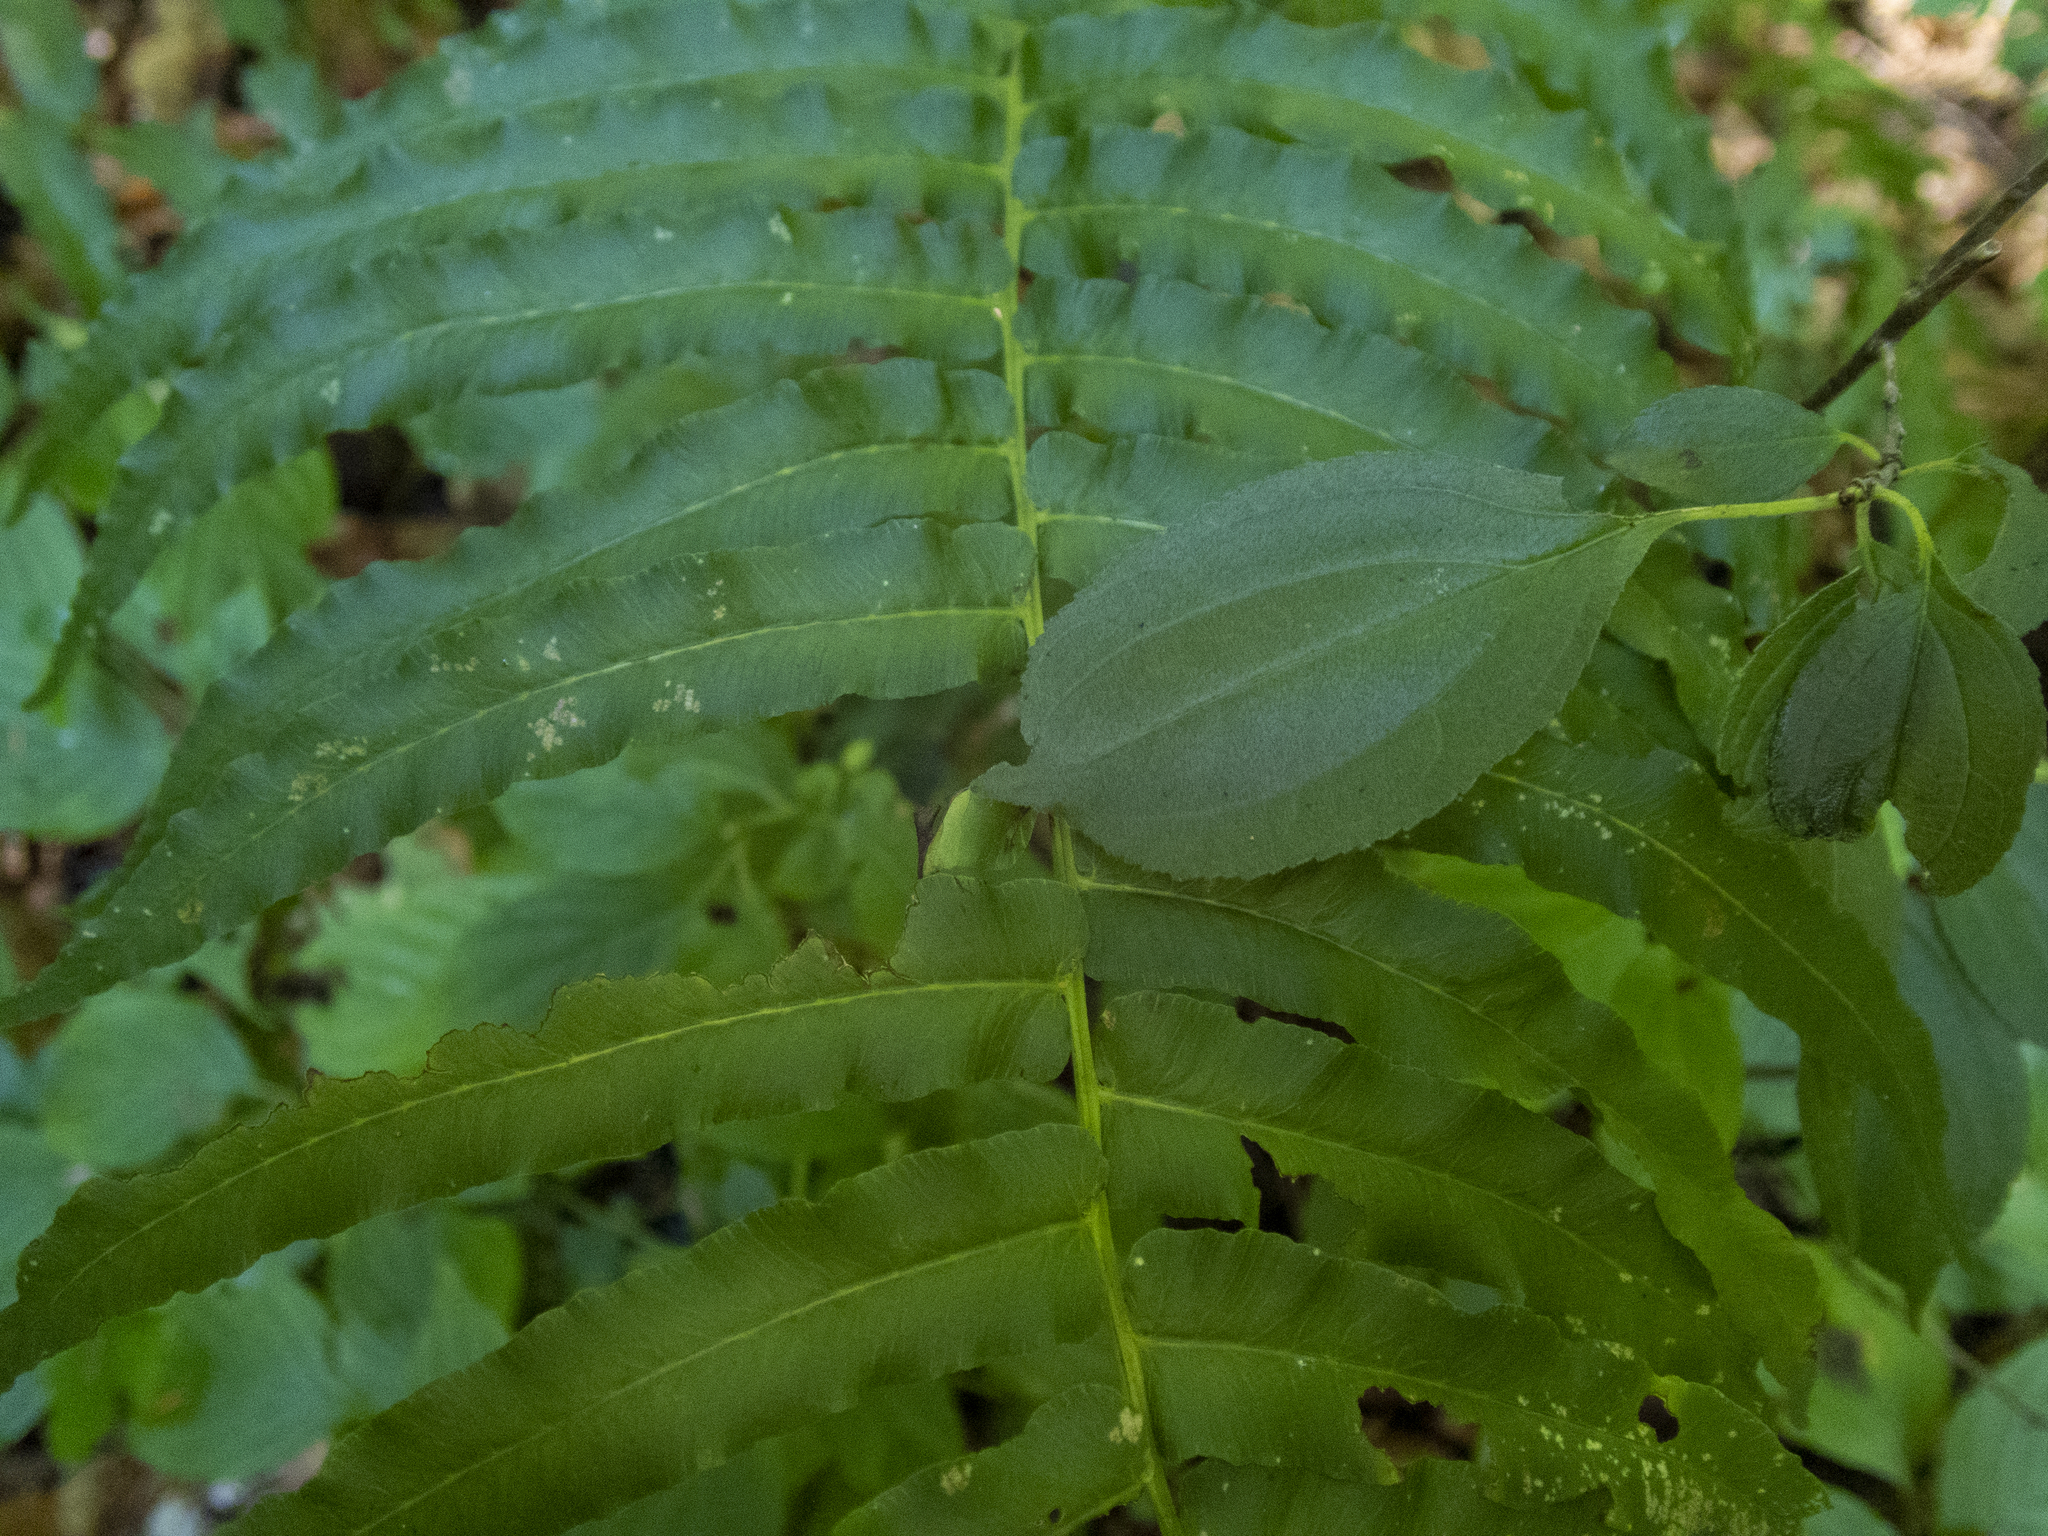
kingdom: Plantae
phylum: Tracheophyta
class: Polypodiopsida
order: Polypodiales
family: Diplaziopsidaceae
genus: Homalosorus
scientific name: Homalosorus pycnocarpos
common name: Glade fern
